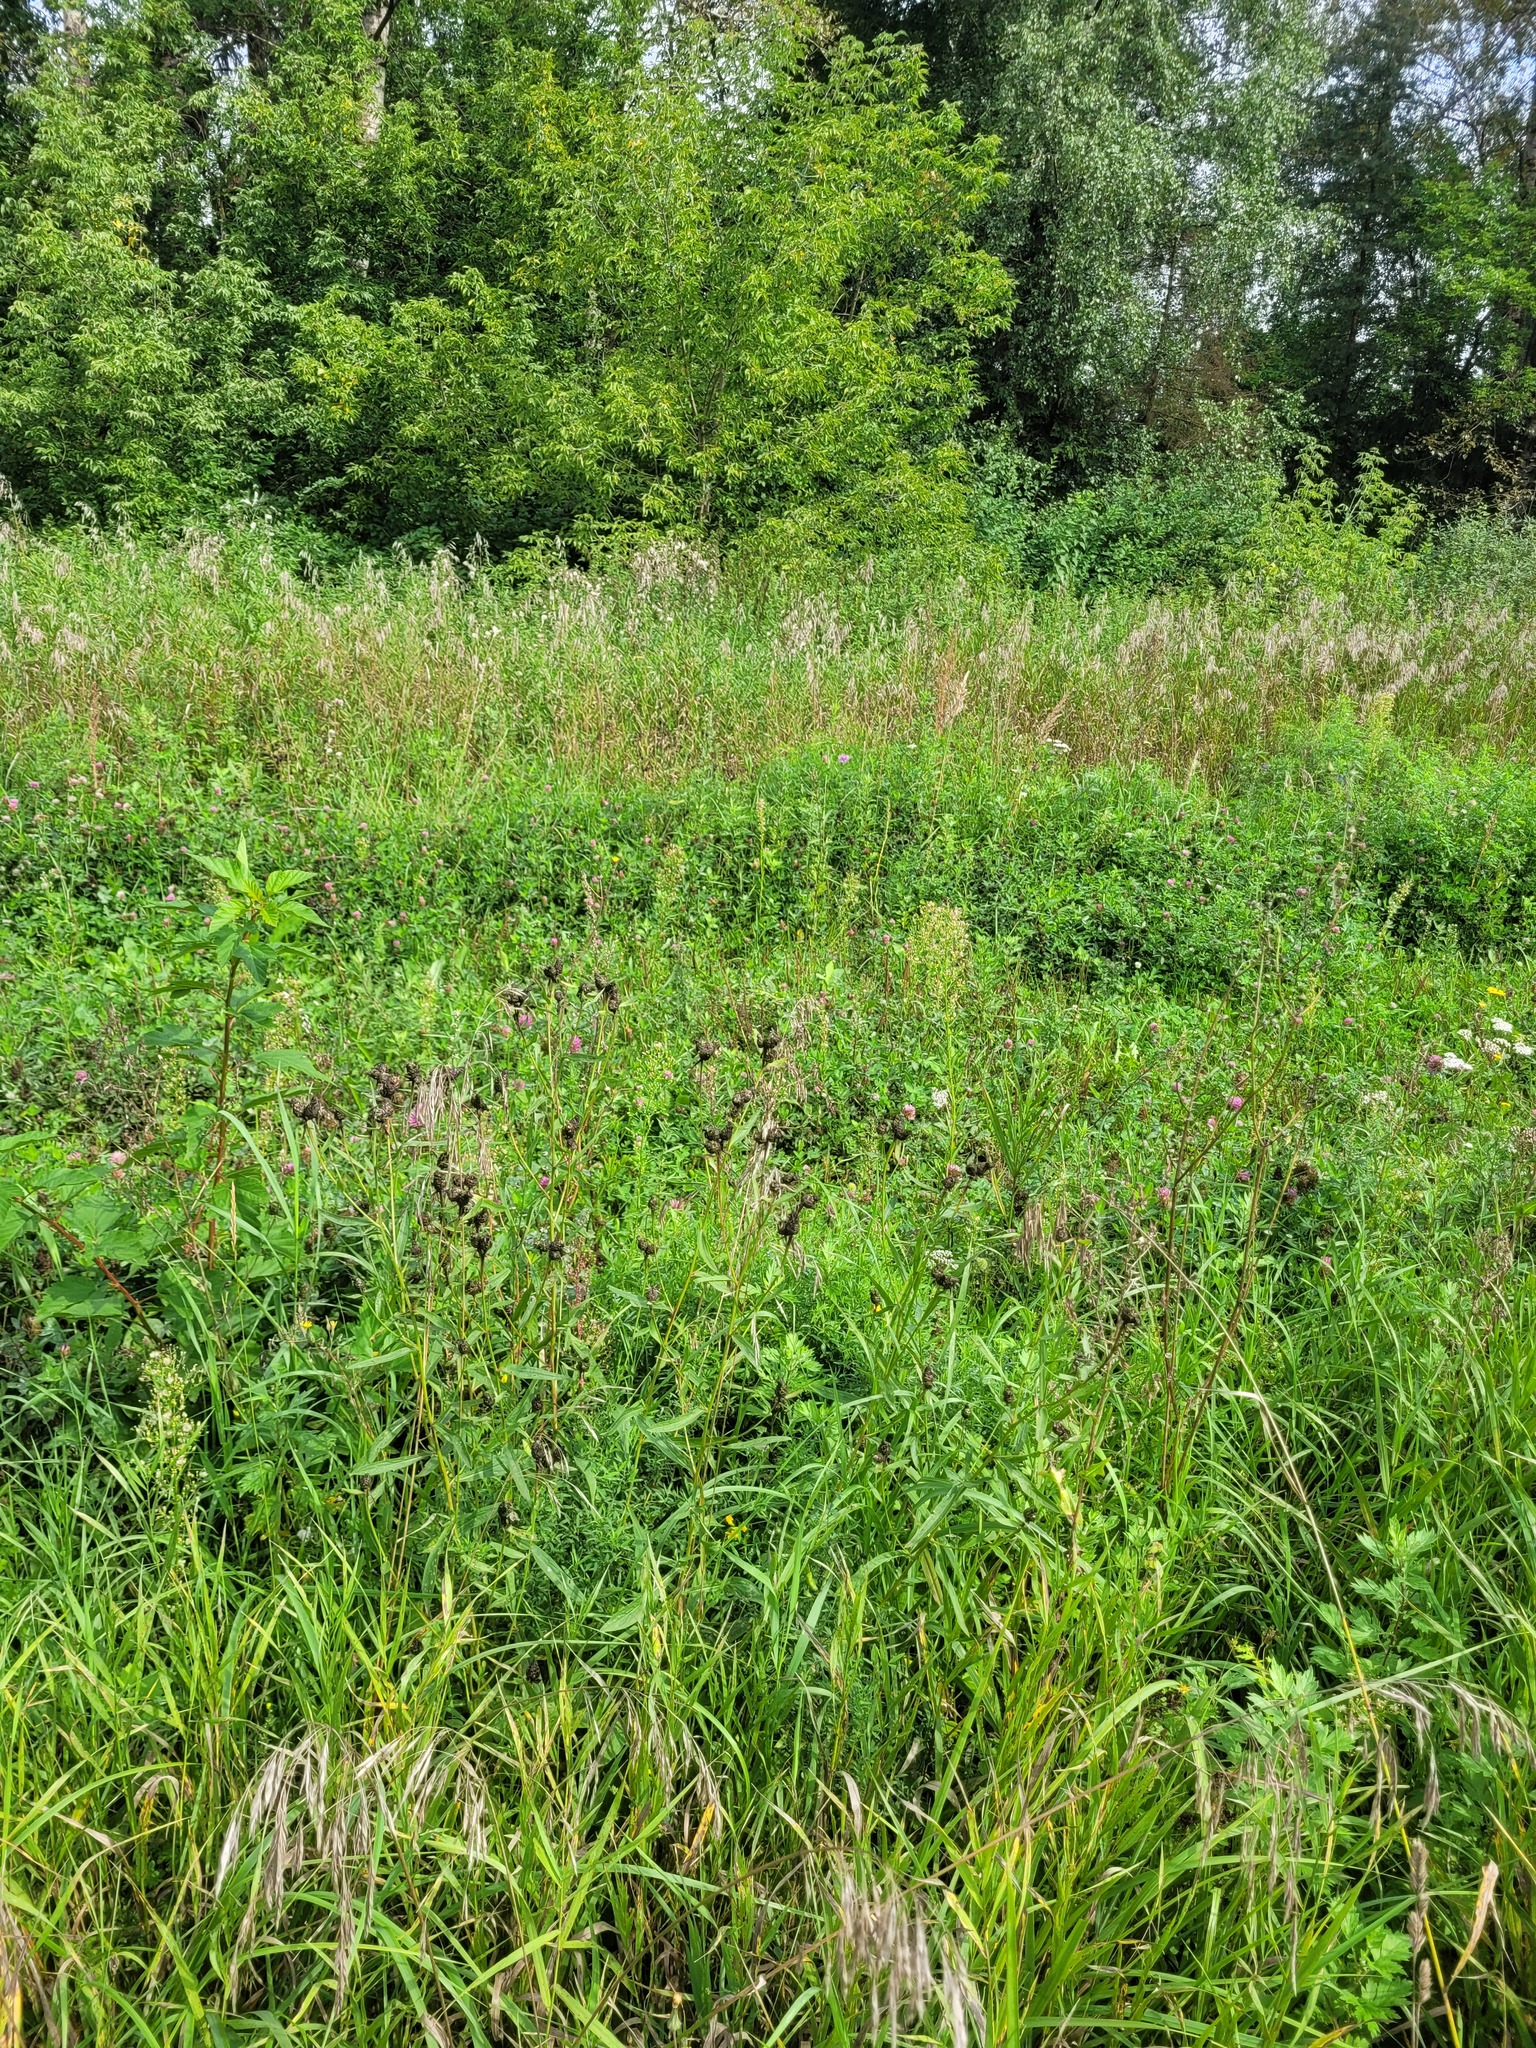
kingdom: Plantae
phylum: Tracheophyta
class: Magnoliopsida
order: Asterales
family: Asteraceae
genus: Cirsium
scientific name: Cirsium arvense
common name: Creeping thistle
